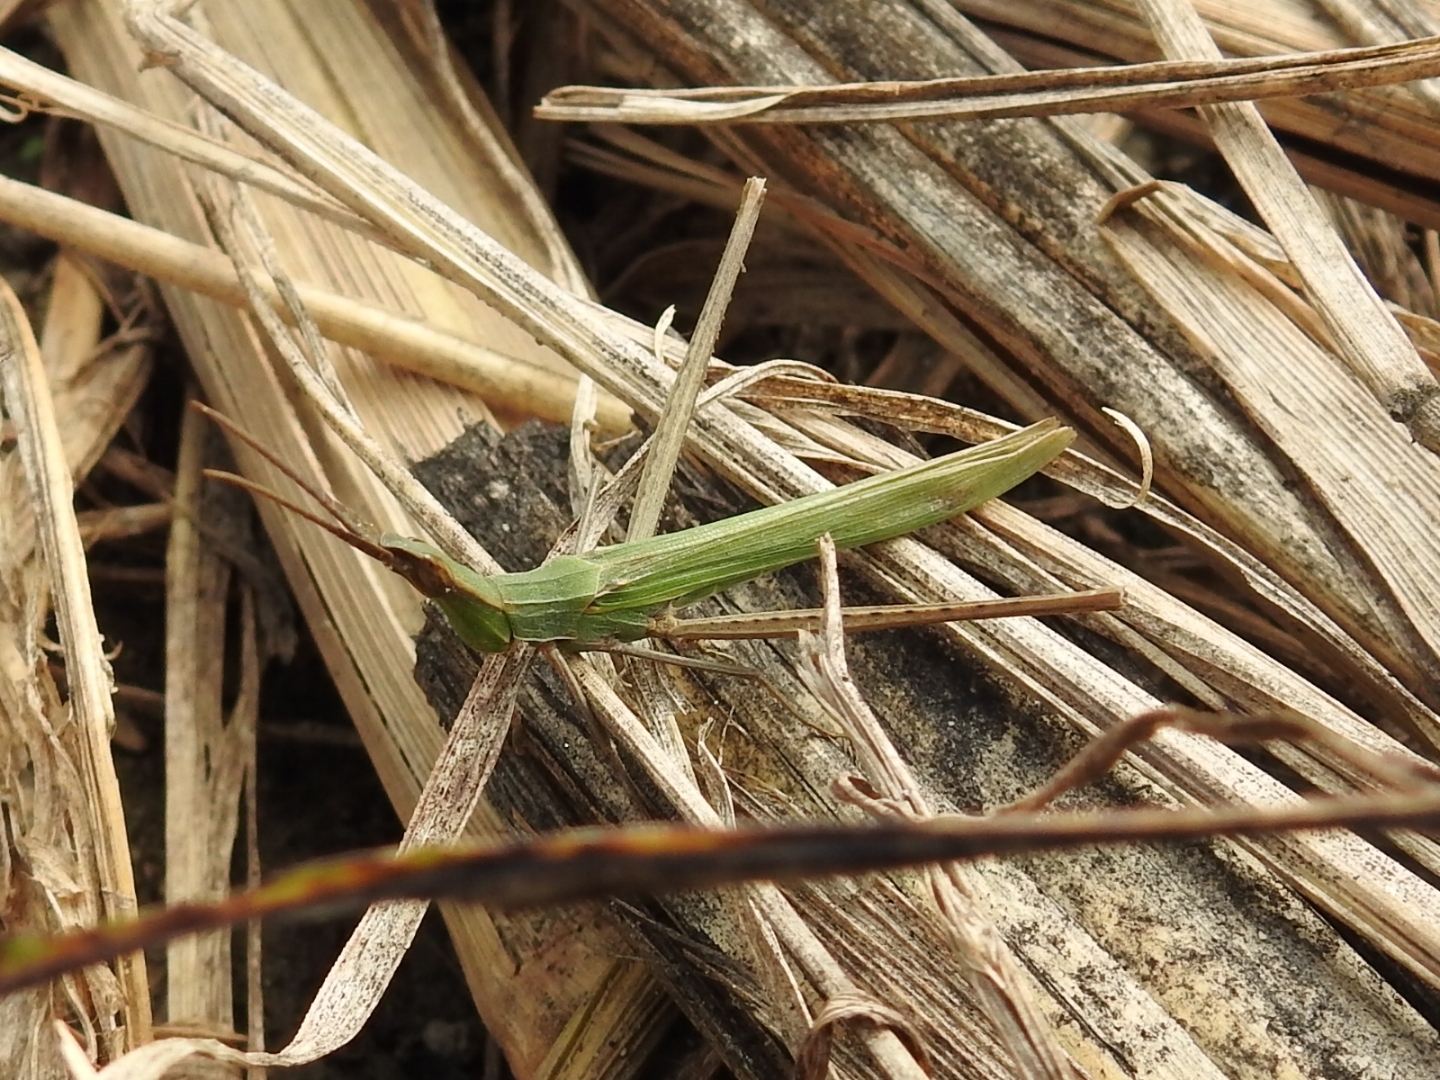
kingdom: Animalia
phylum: Arthropoda
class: Insecta
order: Orthoptera
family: Acrididae
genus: Acrida
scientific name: Acrida ungarica
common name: Common cone-headed grasshopper
